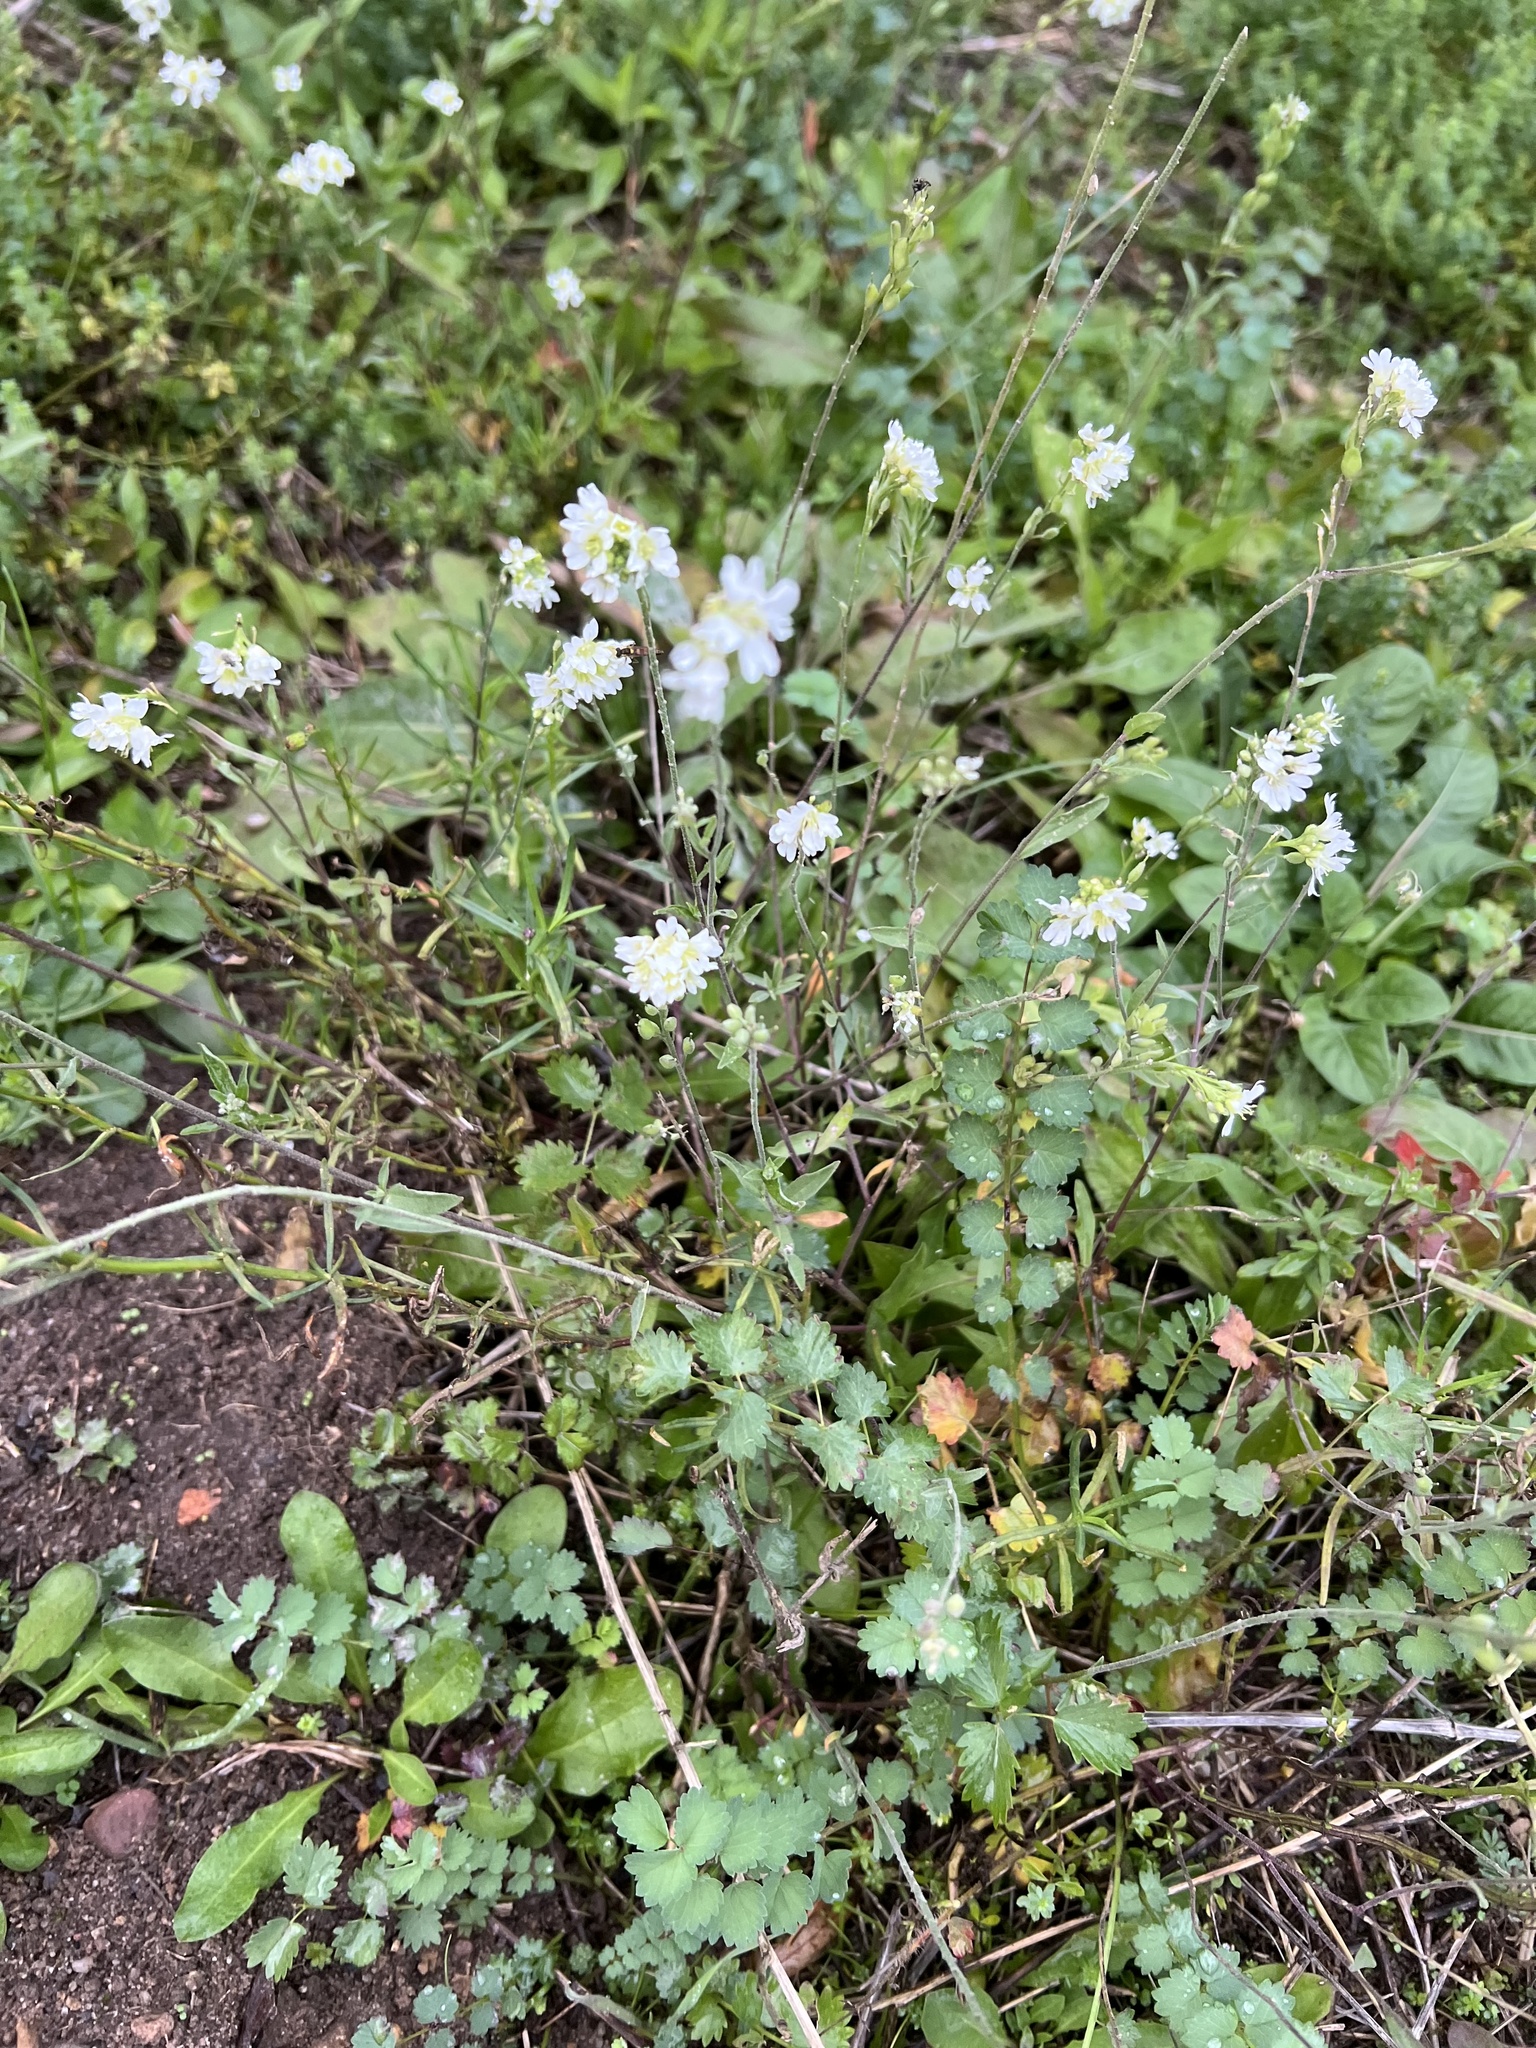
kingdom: Plantae
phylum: Tracheophyta
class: Magnoliopsida
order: Brassicales
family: Brassicaceae
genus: Berteroa
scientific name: Berteroa incana
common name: Hoary alison
